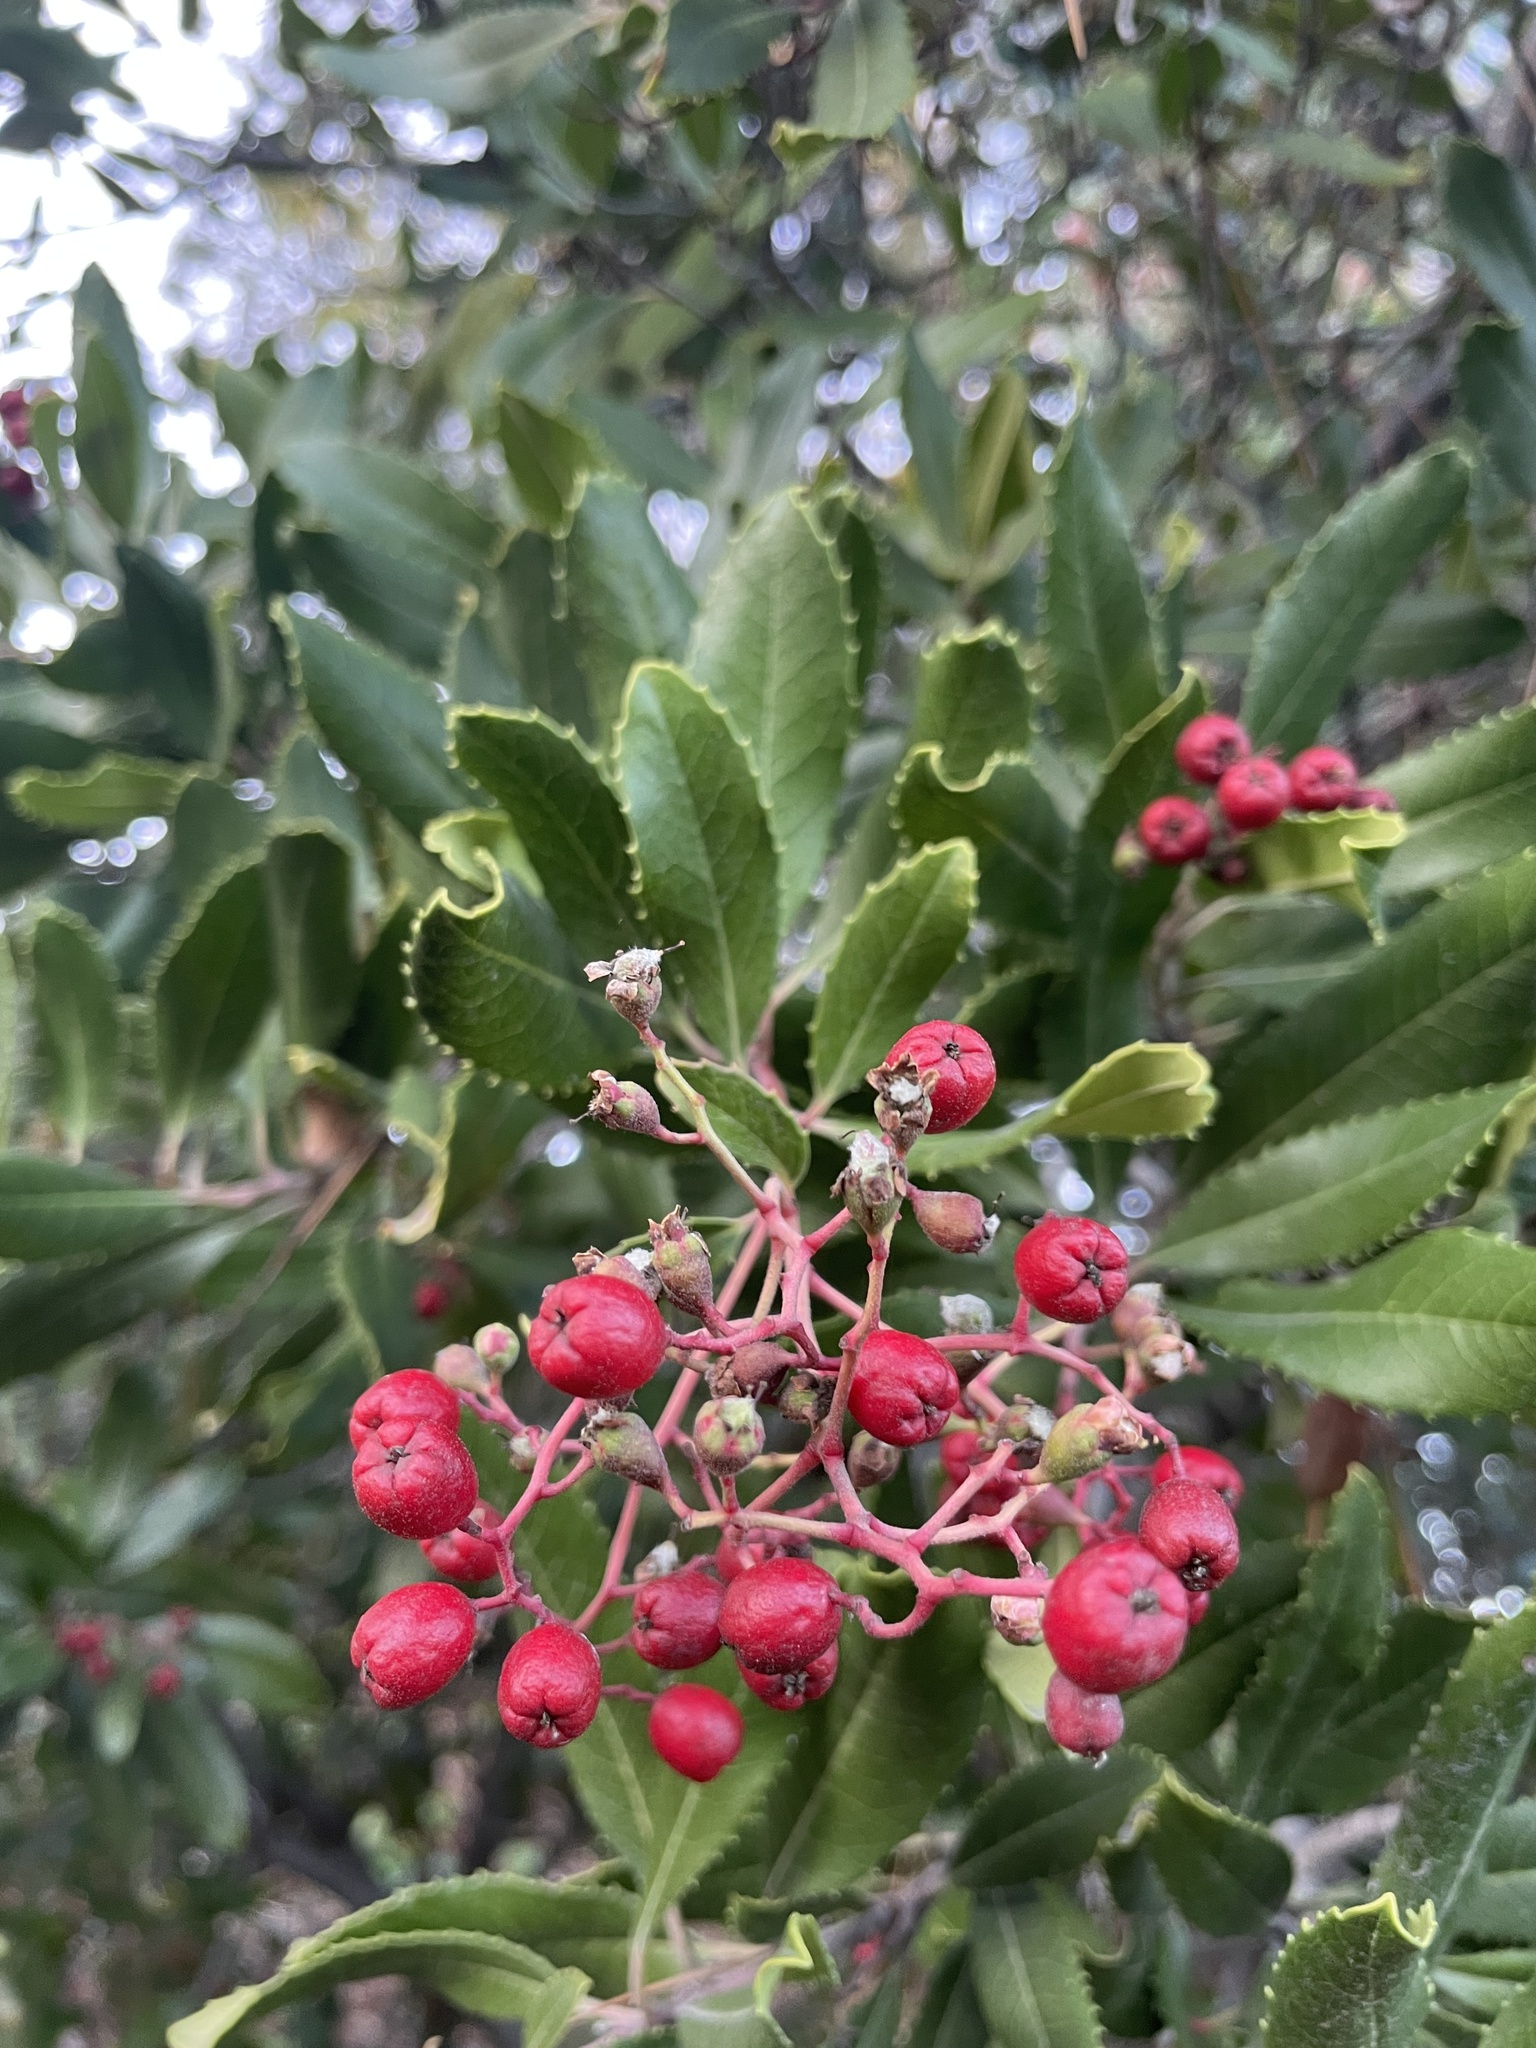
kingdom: Animalia
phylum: Arthropoda
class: Insecta
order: Diptera
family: Cecidomyiidae
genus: Asphondylia
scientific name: Asphondylia photiniae
